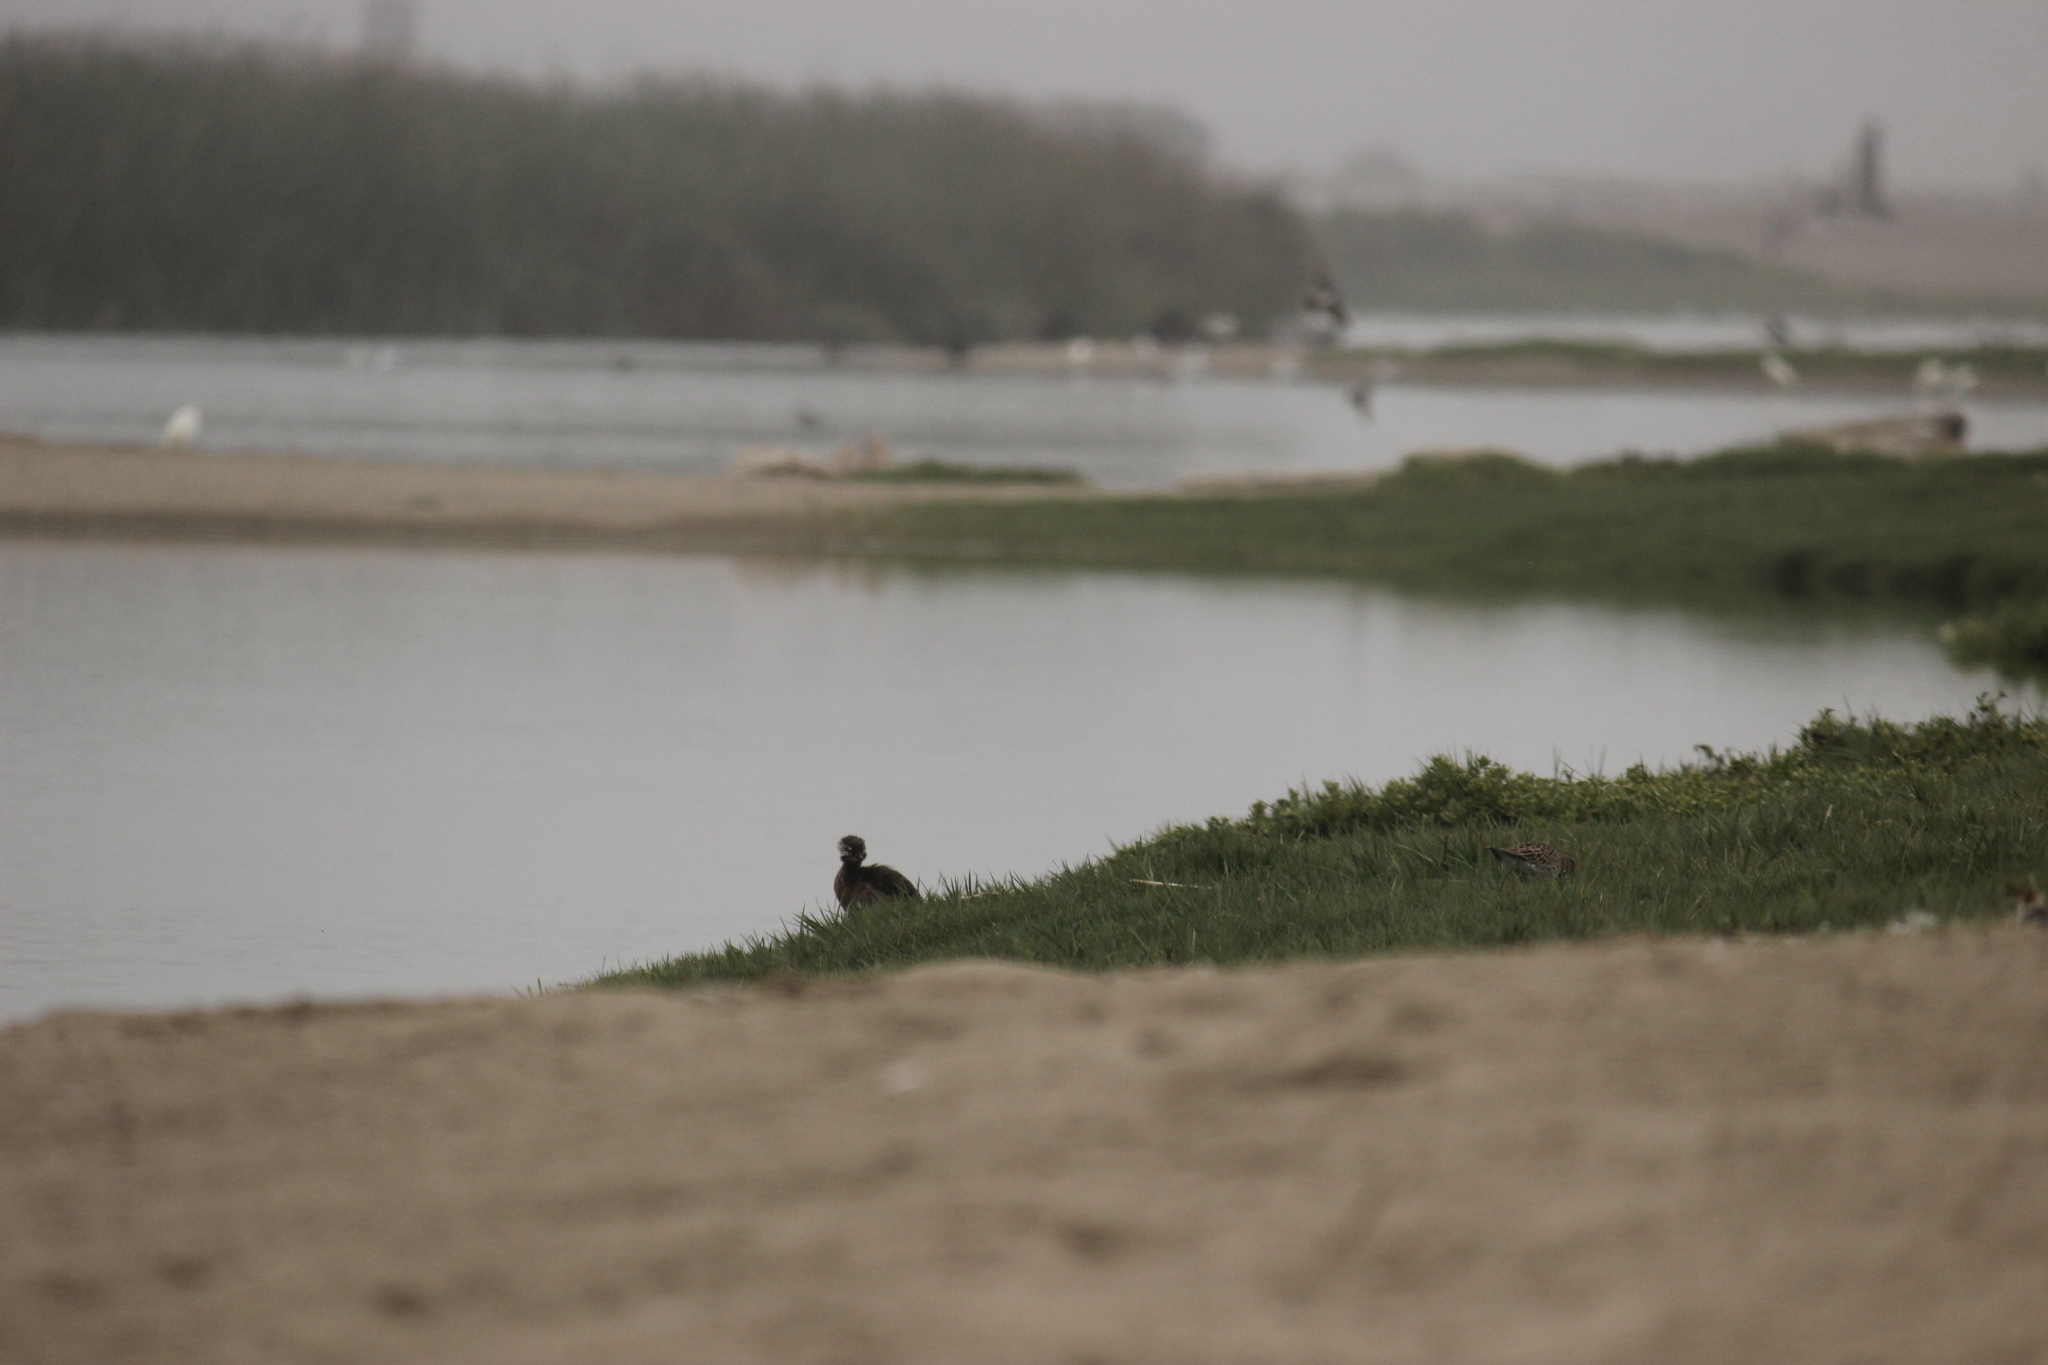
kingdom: Animalia
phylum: Chordata
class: Aves
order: Podicipediformes
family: Podicipedidae
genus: Rollandia
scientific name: Rollandia rolland
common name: White-tufted grebe
